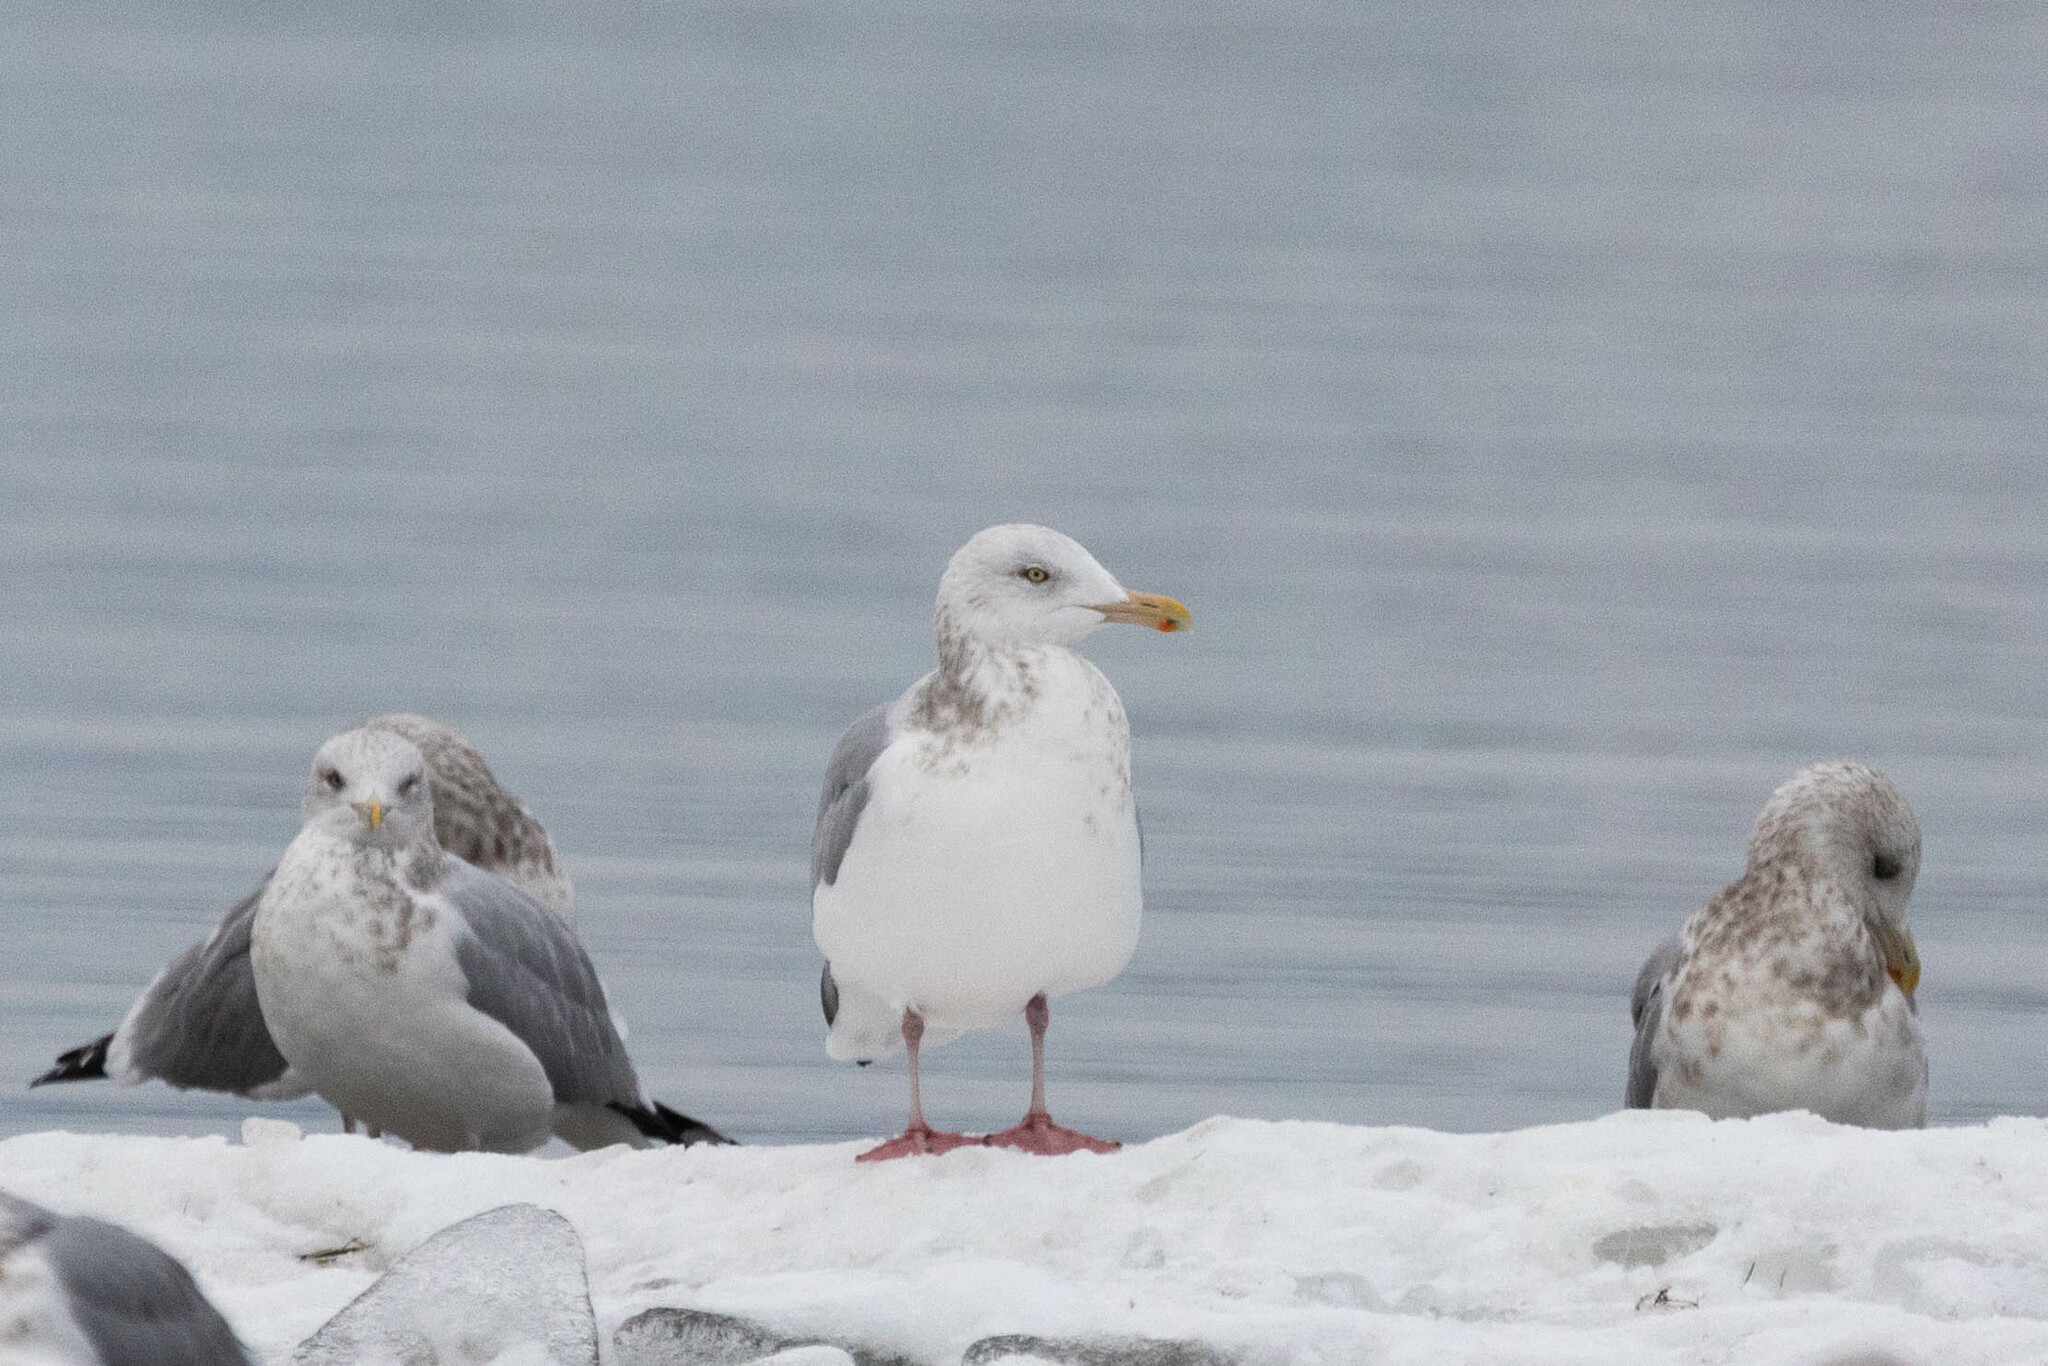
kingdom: Animalia
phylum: Chordata
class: Aves
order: Charadriiformes
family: Laridae
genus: Larus
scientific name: Larus argentatus
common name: Herring gull
